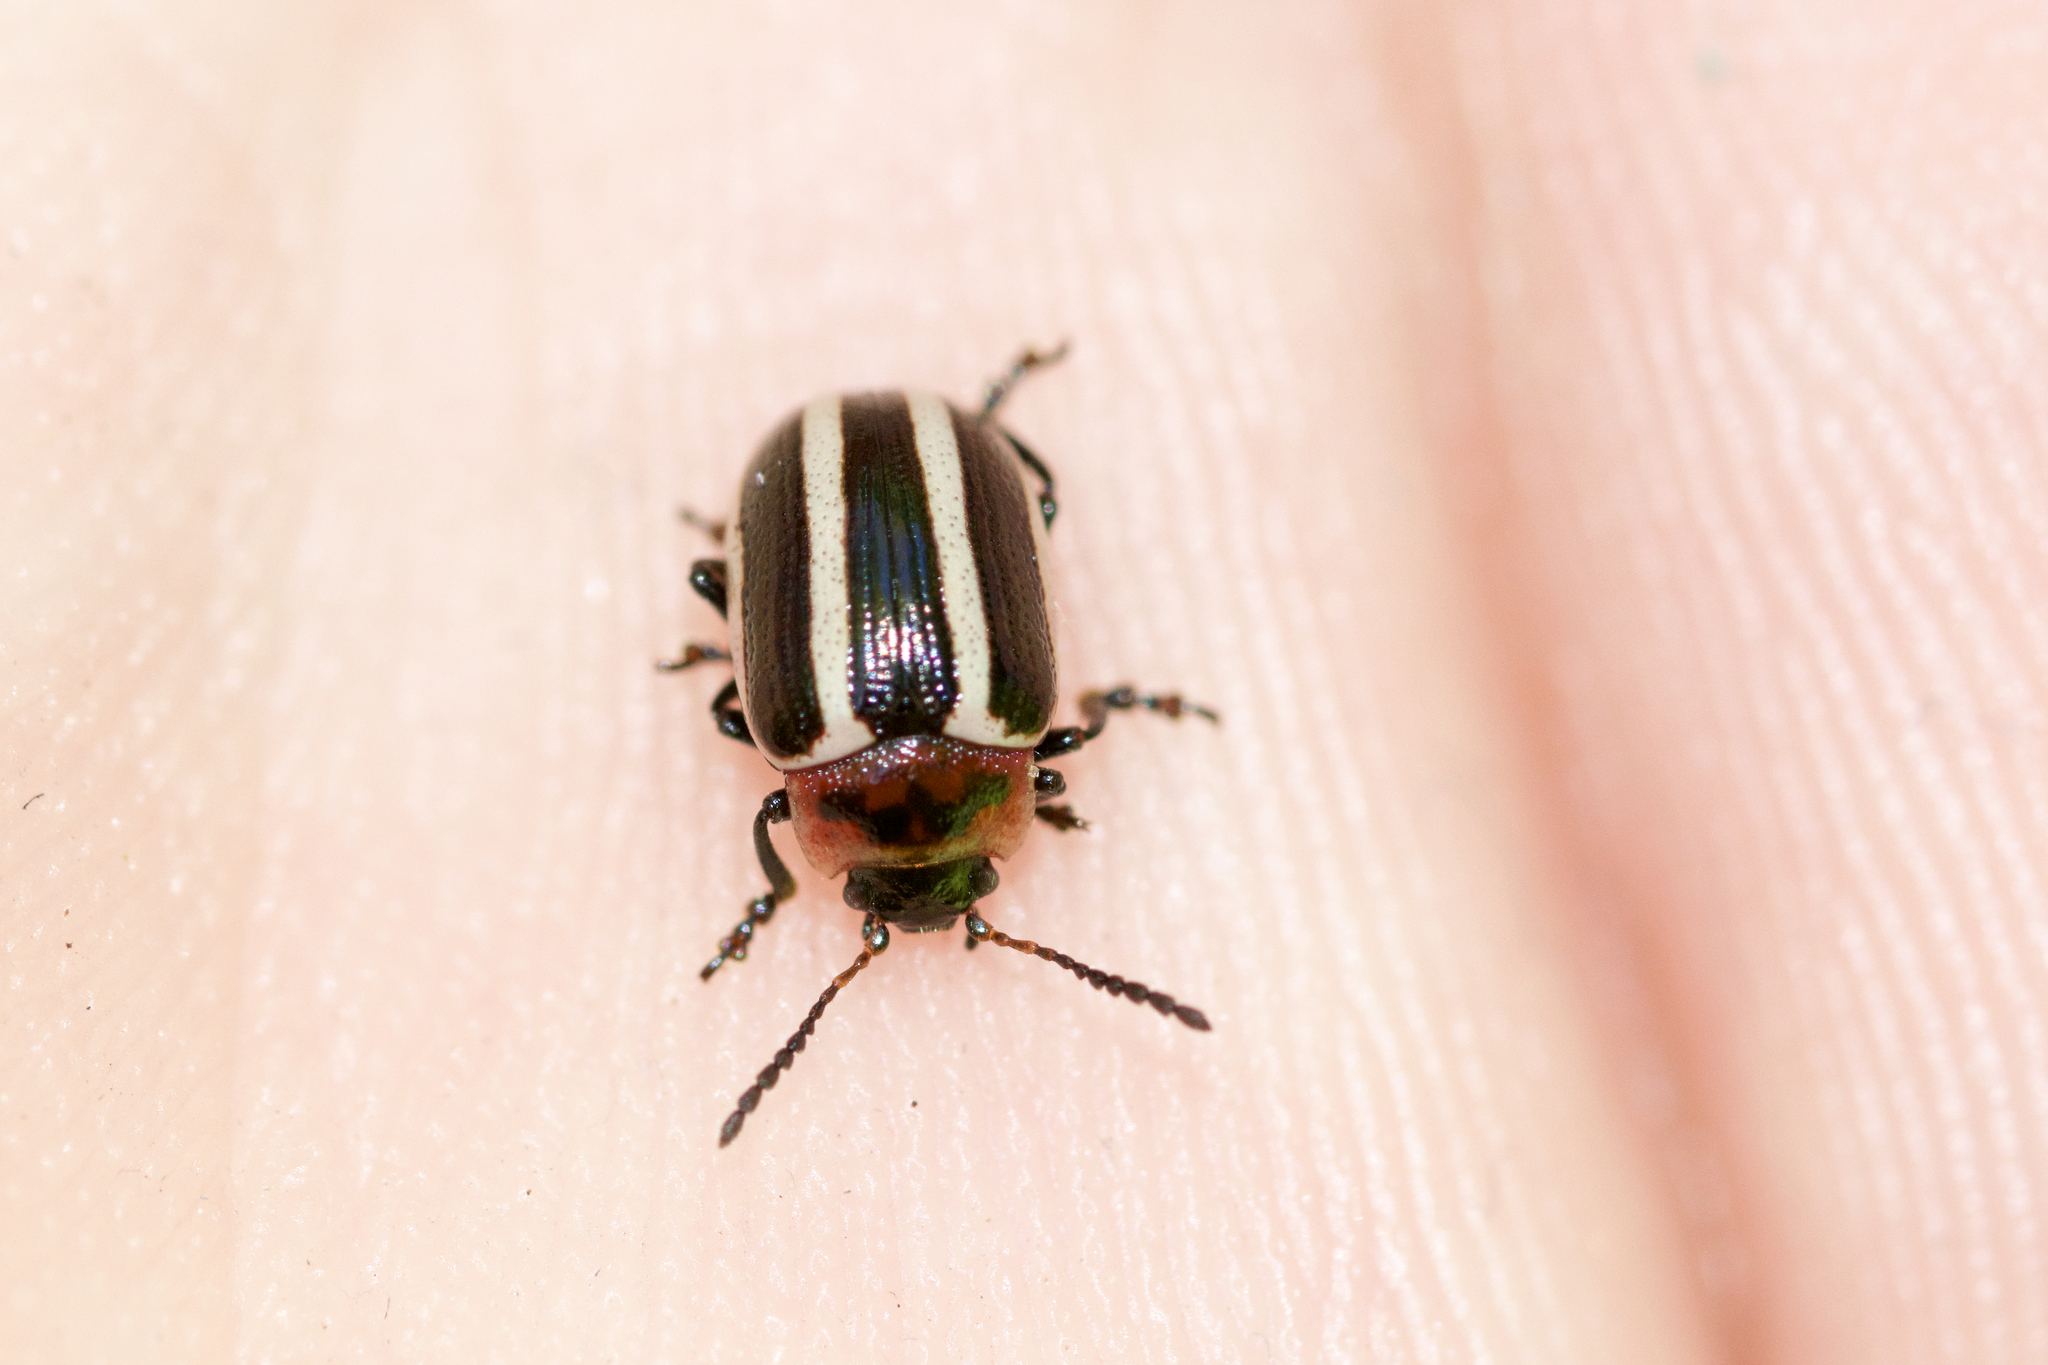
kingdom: Animalia
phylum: Arthropoda
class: Insecta
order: Coleoptera
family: Chrysomelidae
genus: Calligrapha
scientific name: Calligrapha californica
